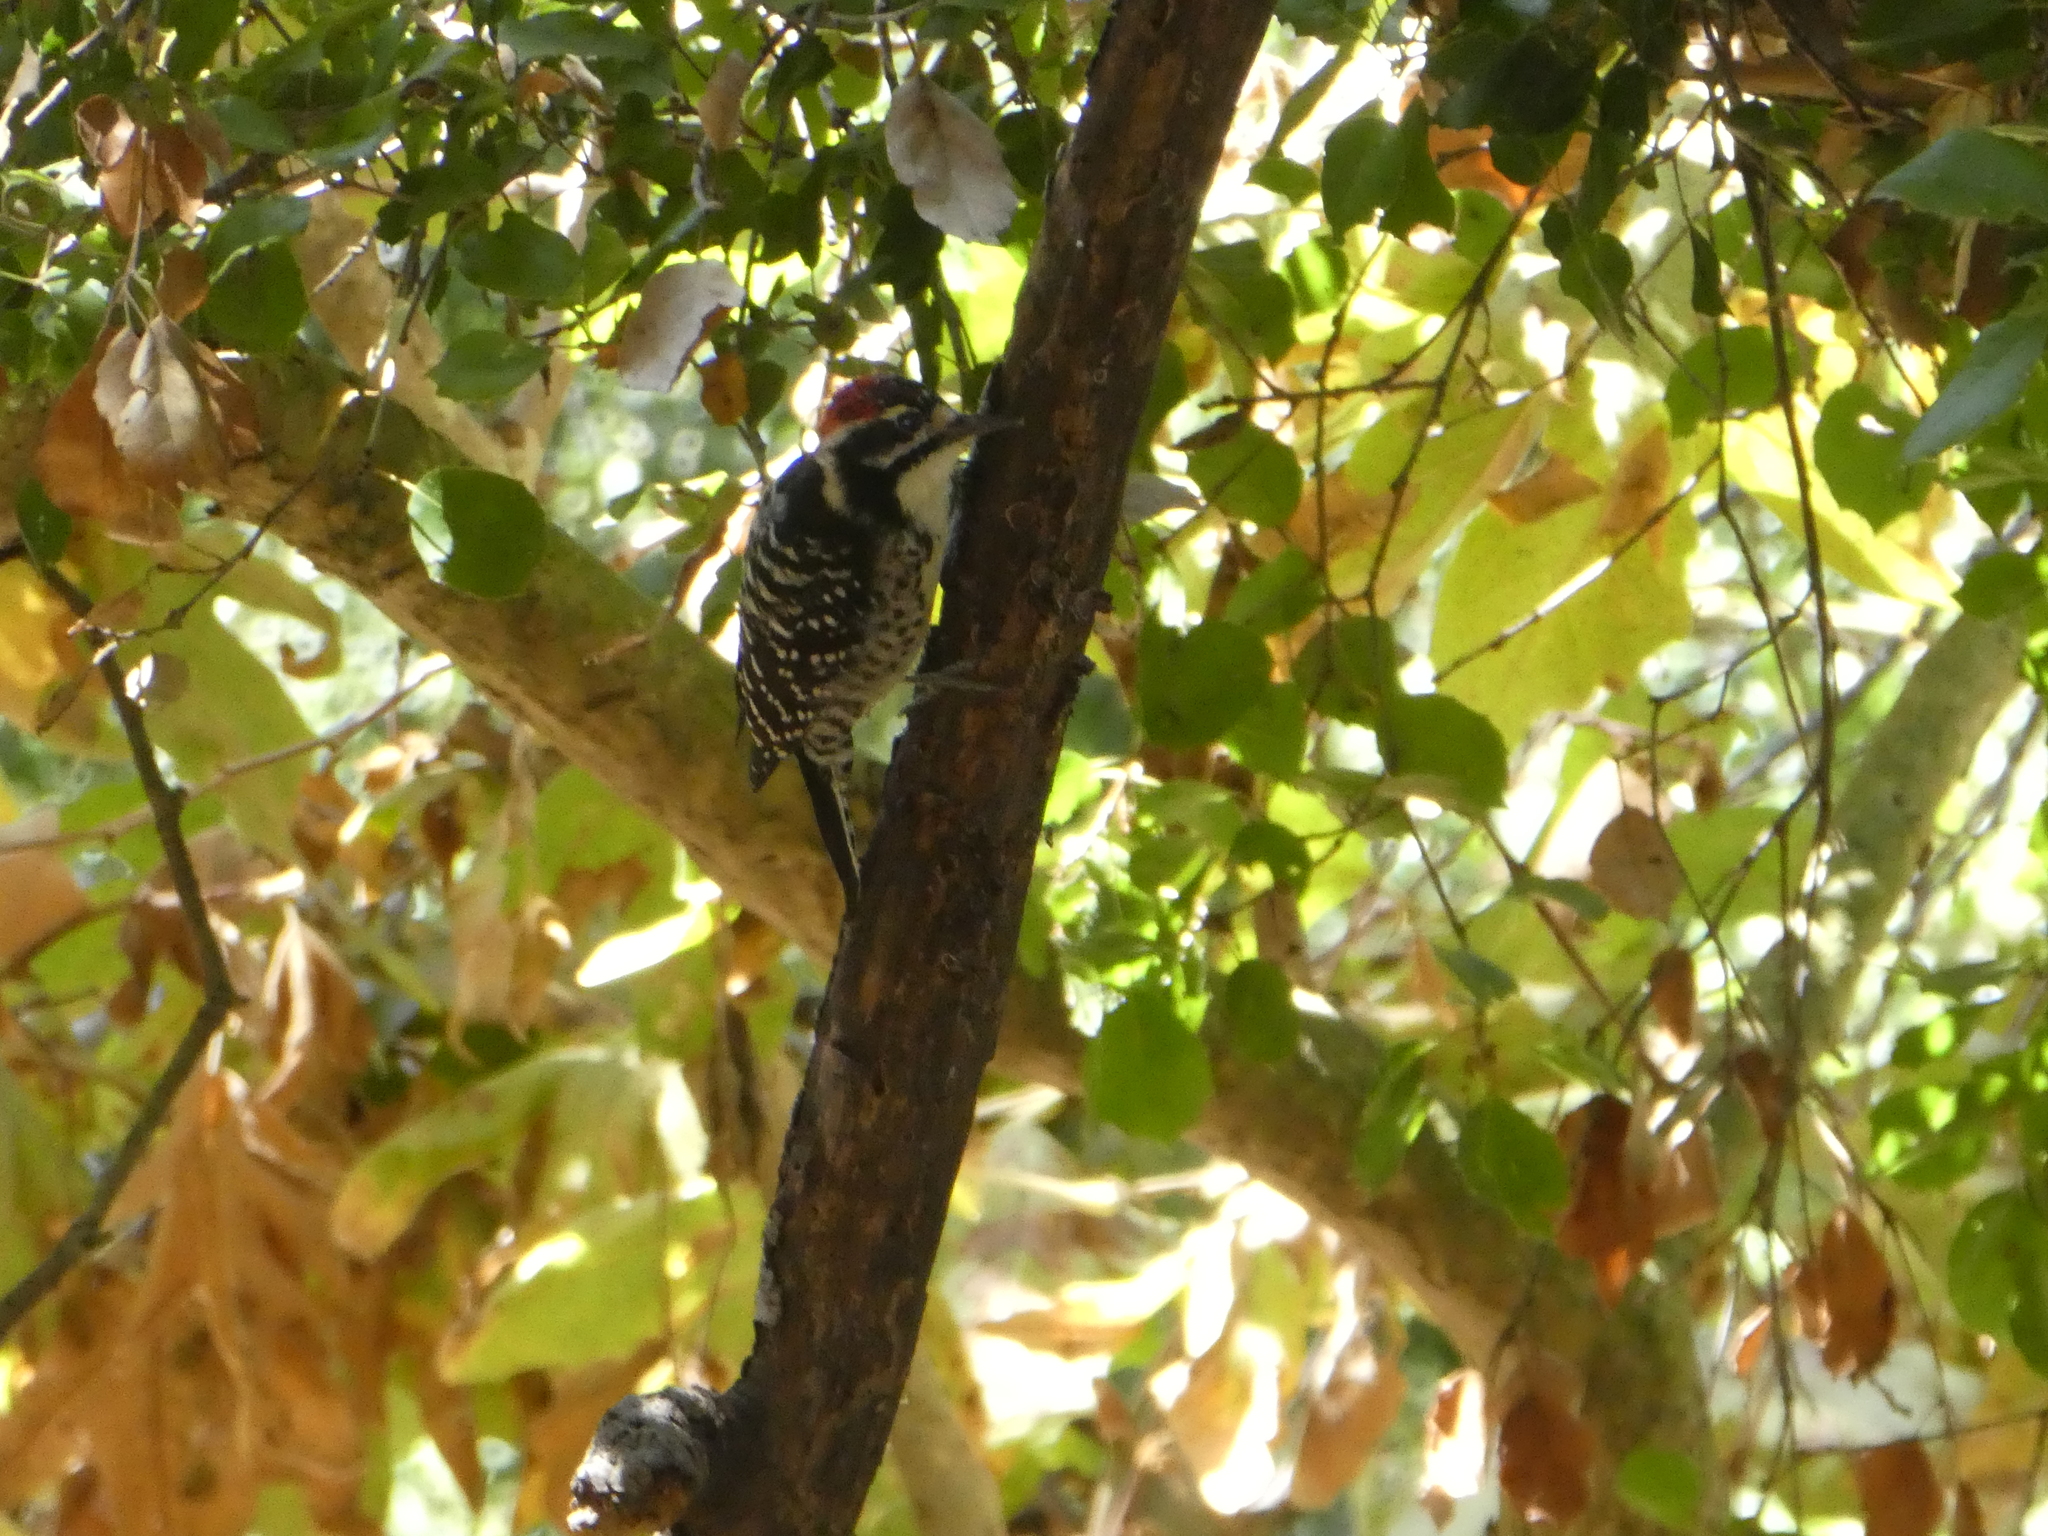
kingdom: Animalia
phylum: Chordata
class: Aves
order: Piciformes
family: Picidae
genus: Dryobates
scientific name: Dryobates nuttallii
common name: Nuttall's woodpecker
